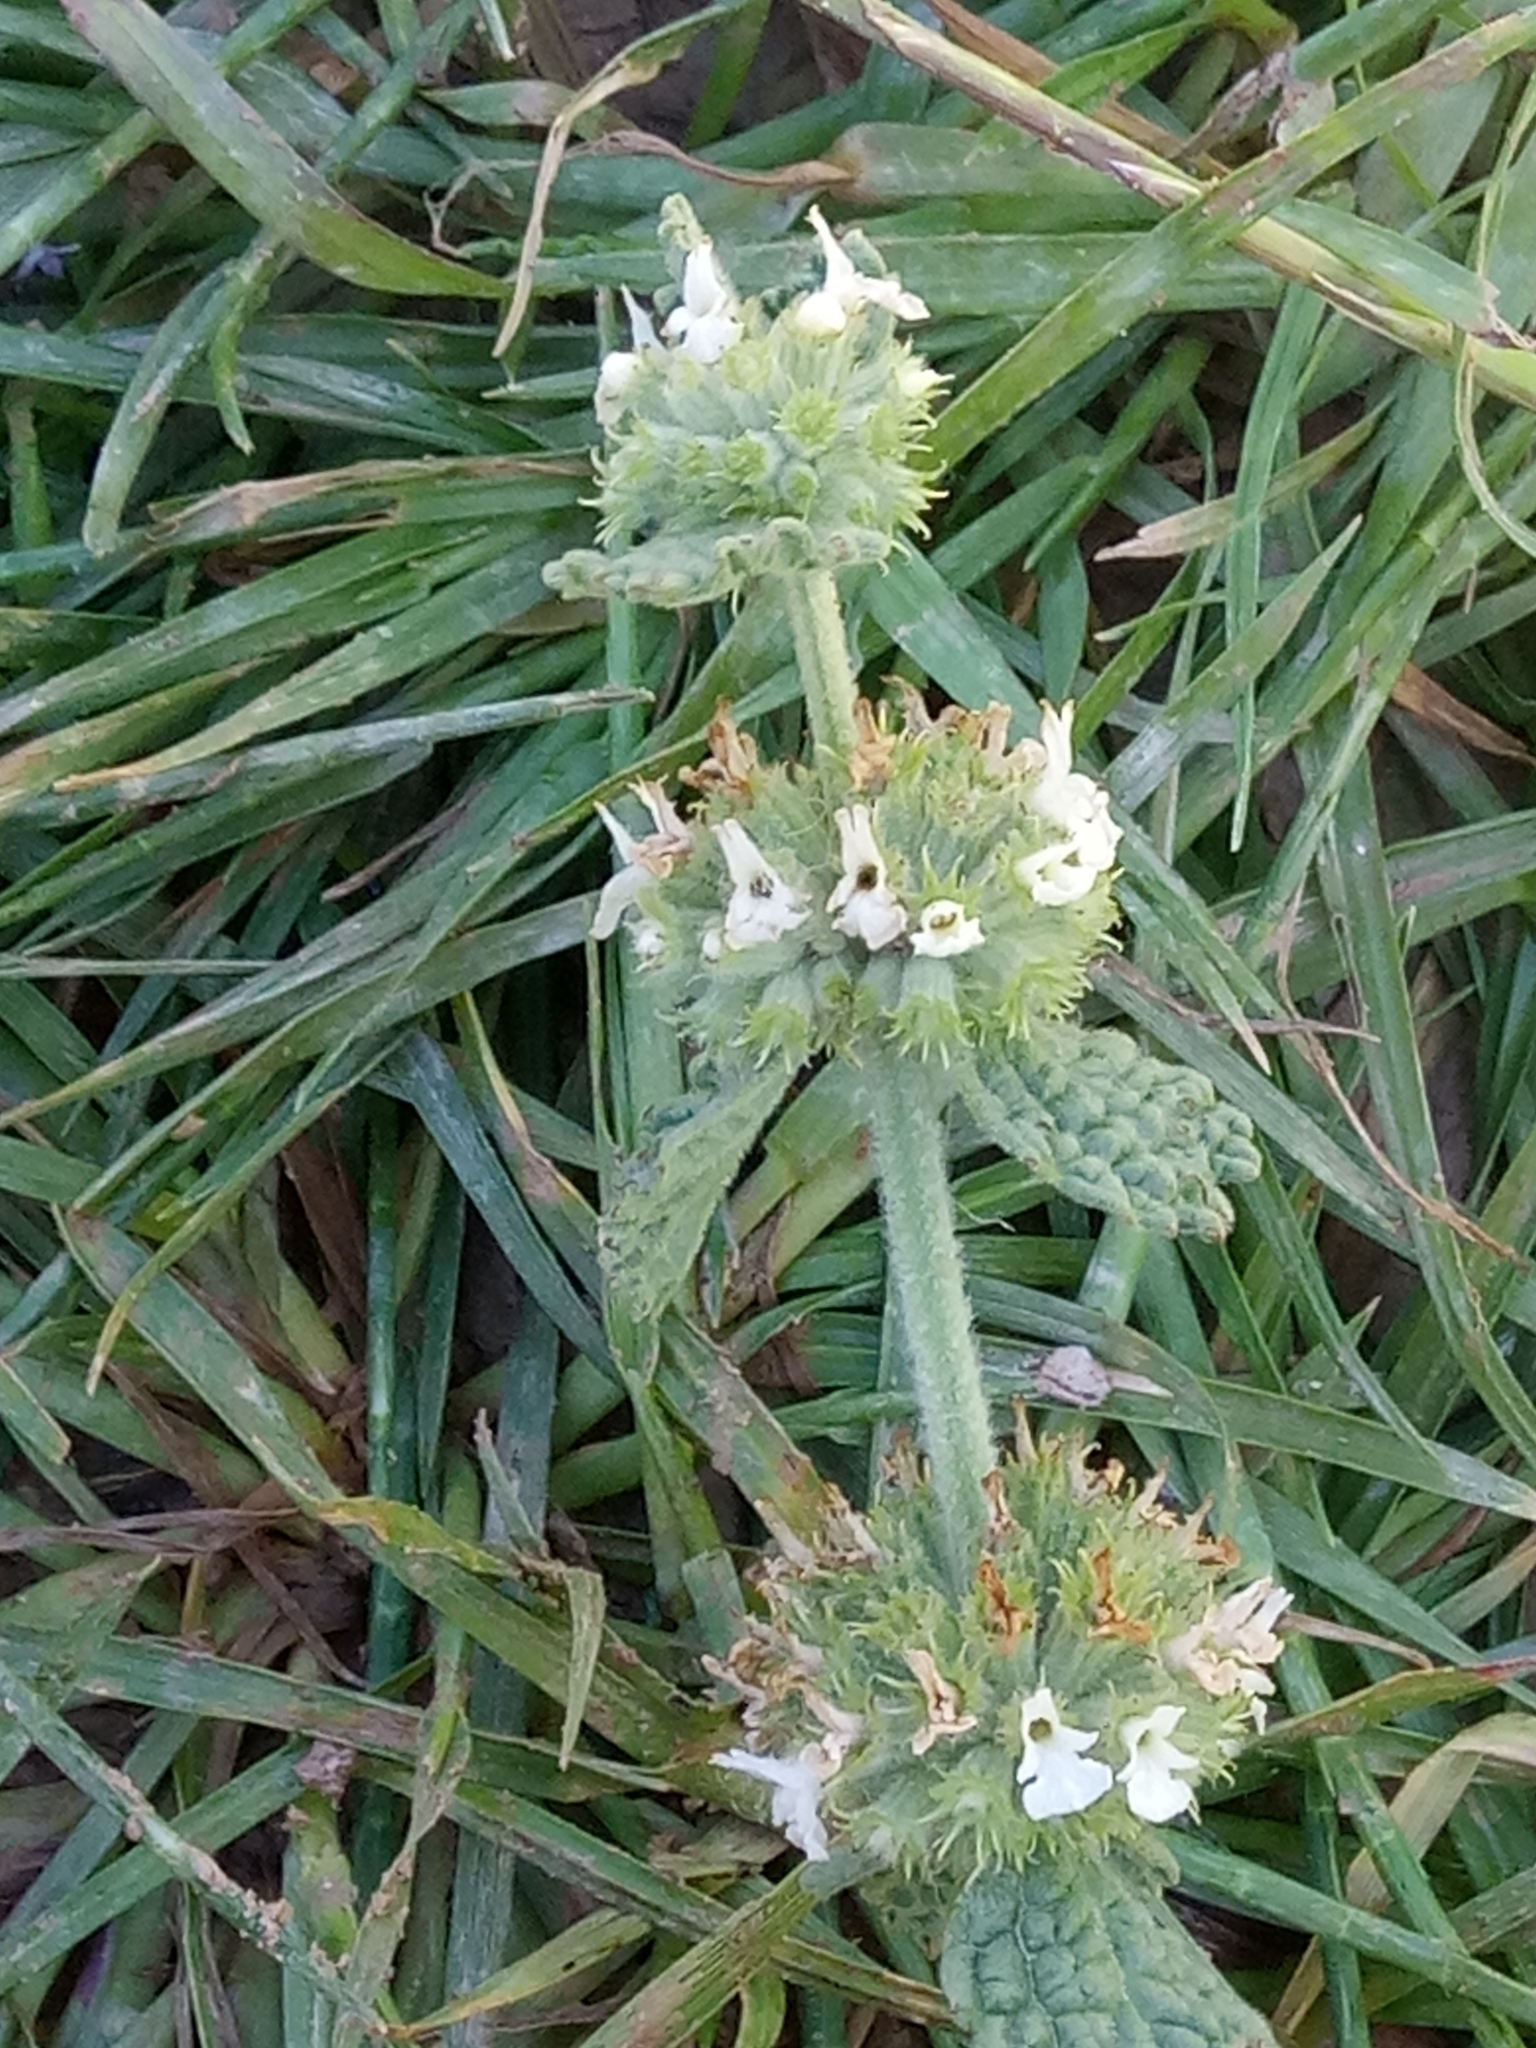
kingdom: Plantae
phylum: Tracheophyta
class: Magnoliopsida
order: Lamiales
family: Lamiaceae
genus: Marrubium
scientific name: Marrubium vulgare
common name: Horehound
